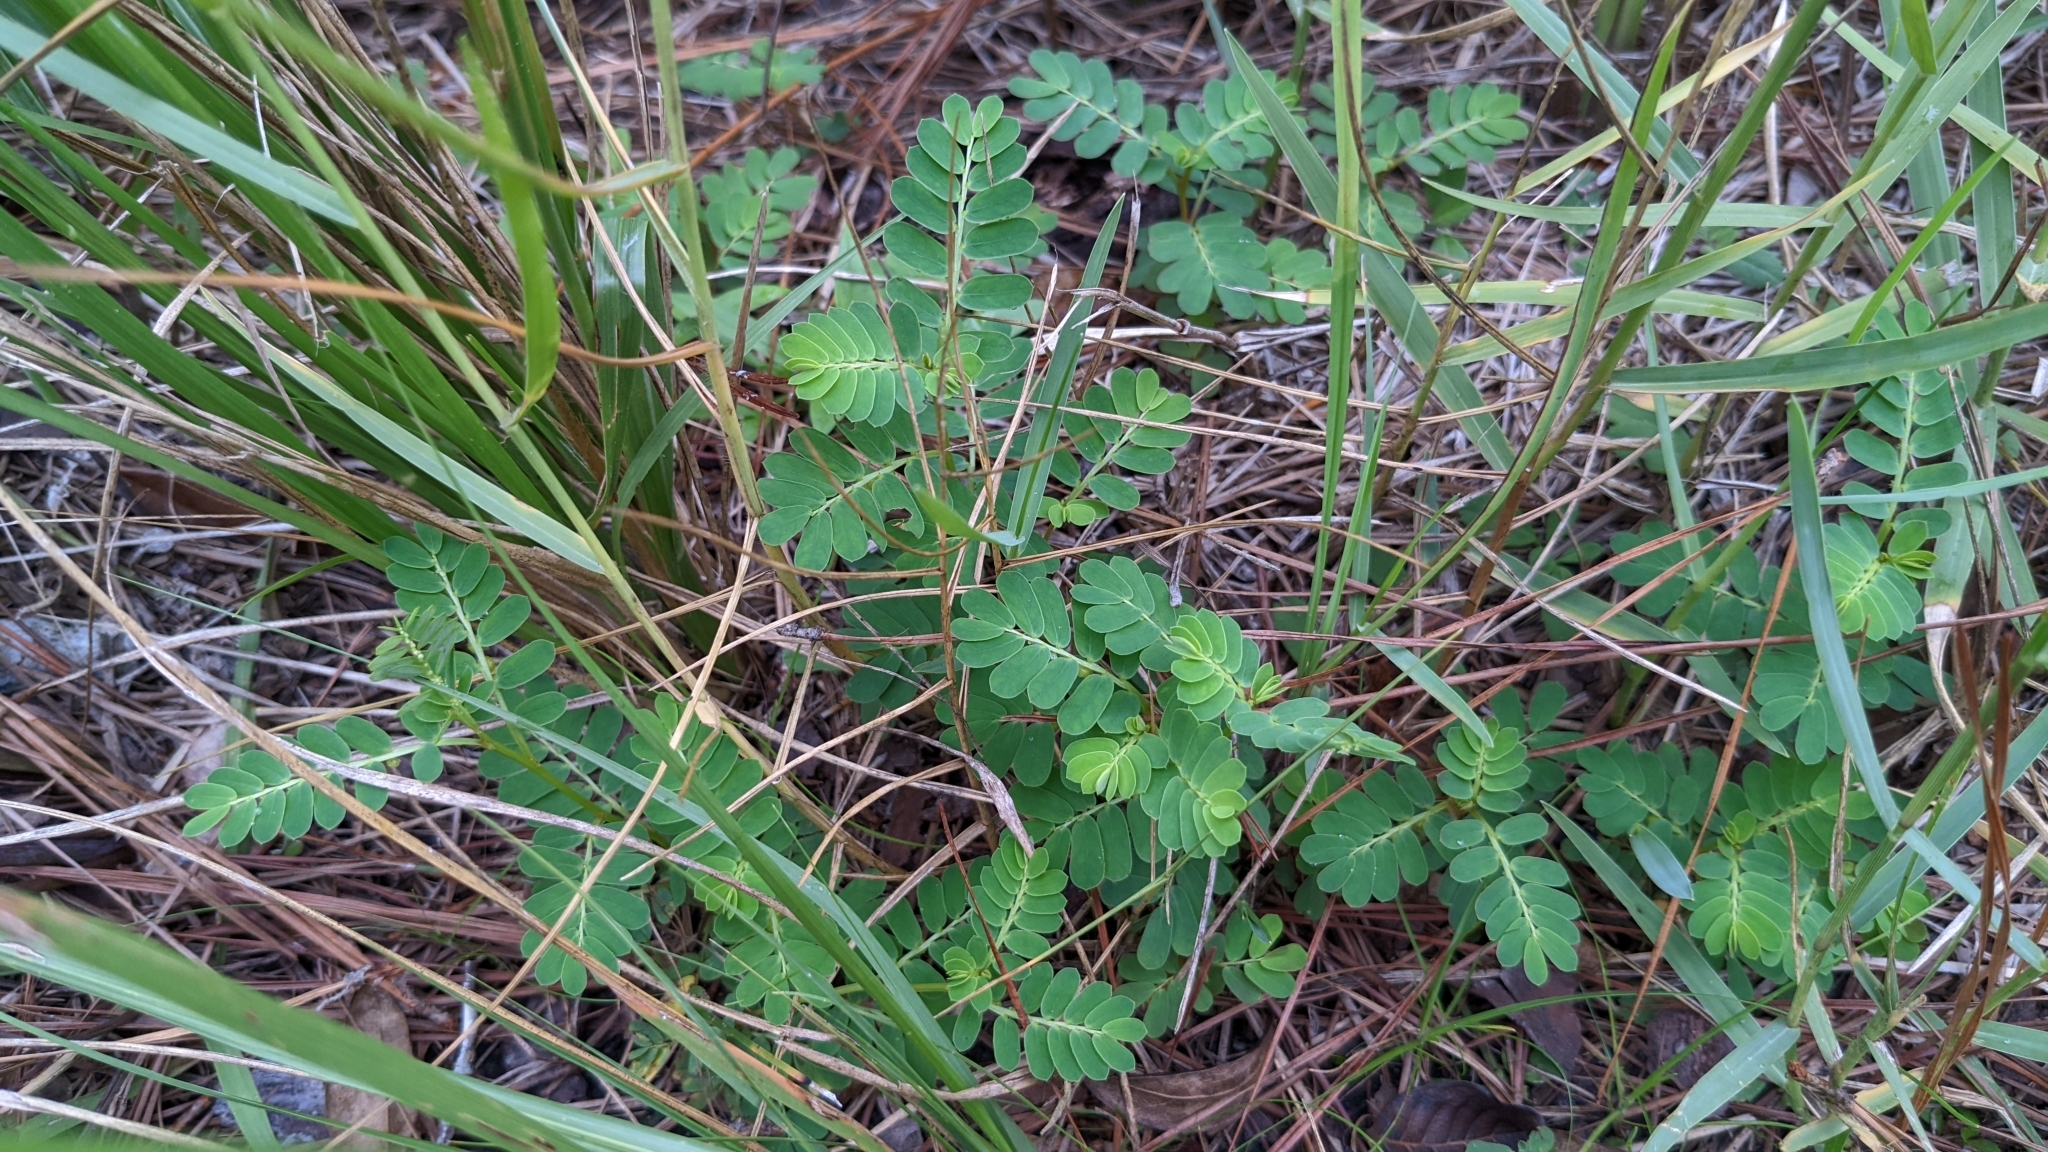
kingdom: Plantae
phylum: Tracheophyta
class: Magnoliopsida
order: Malpighiales
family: Phyllanthaceae
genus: Phyllanthus
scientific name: Phyllanthus urinaria
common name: Chamber bitter
